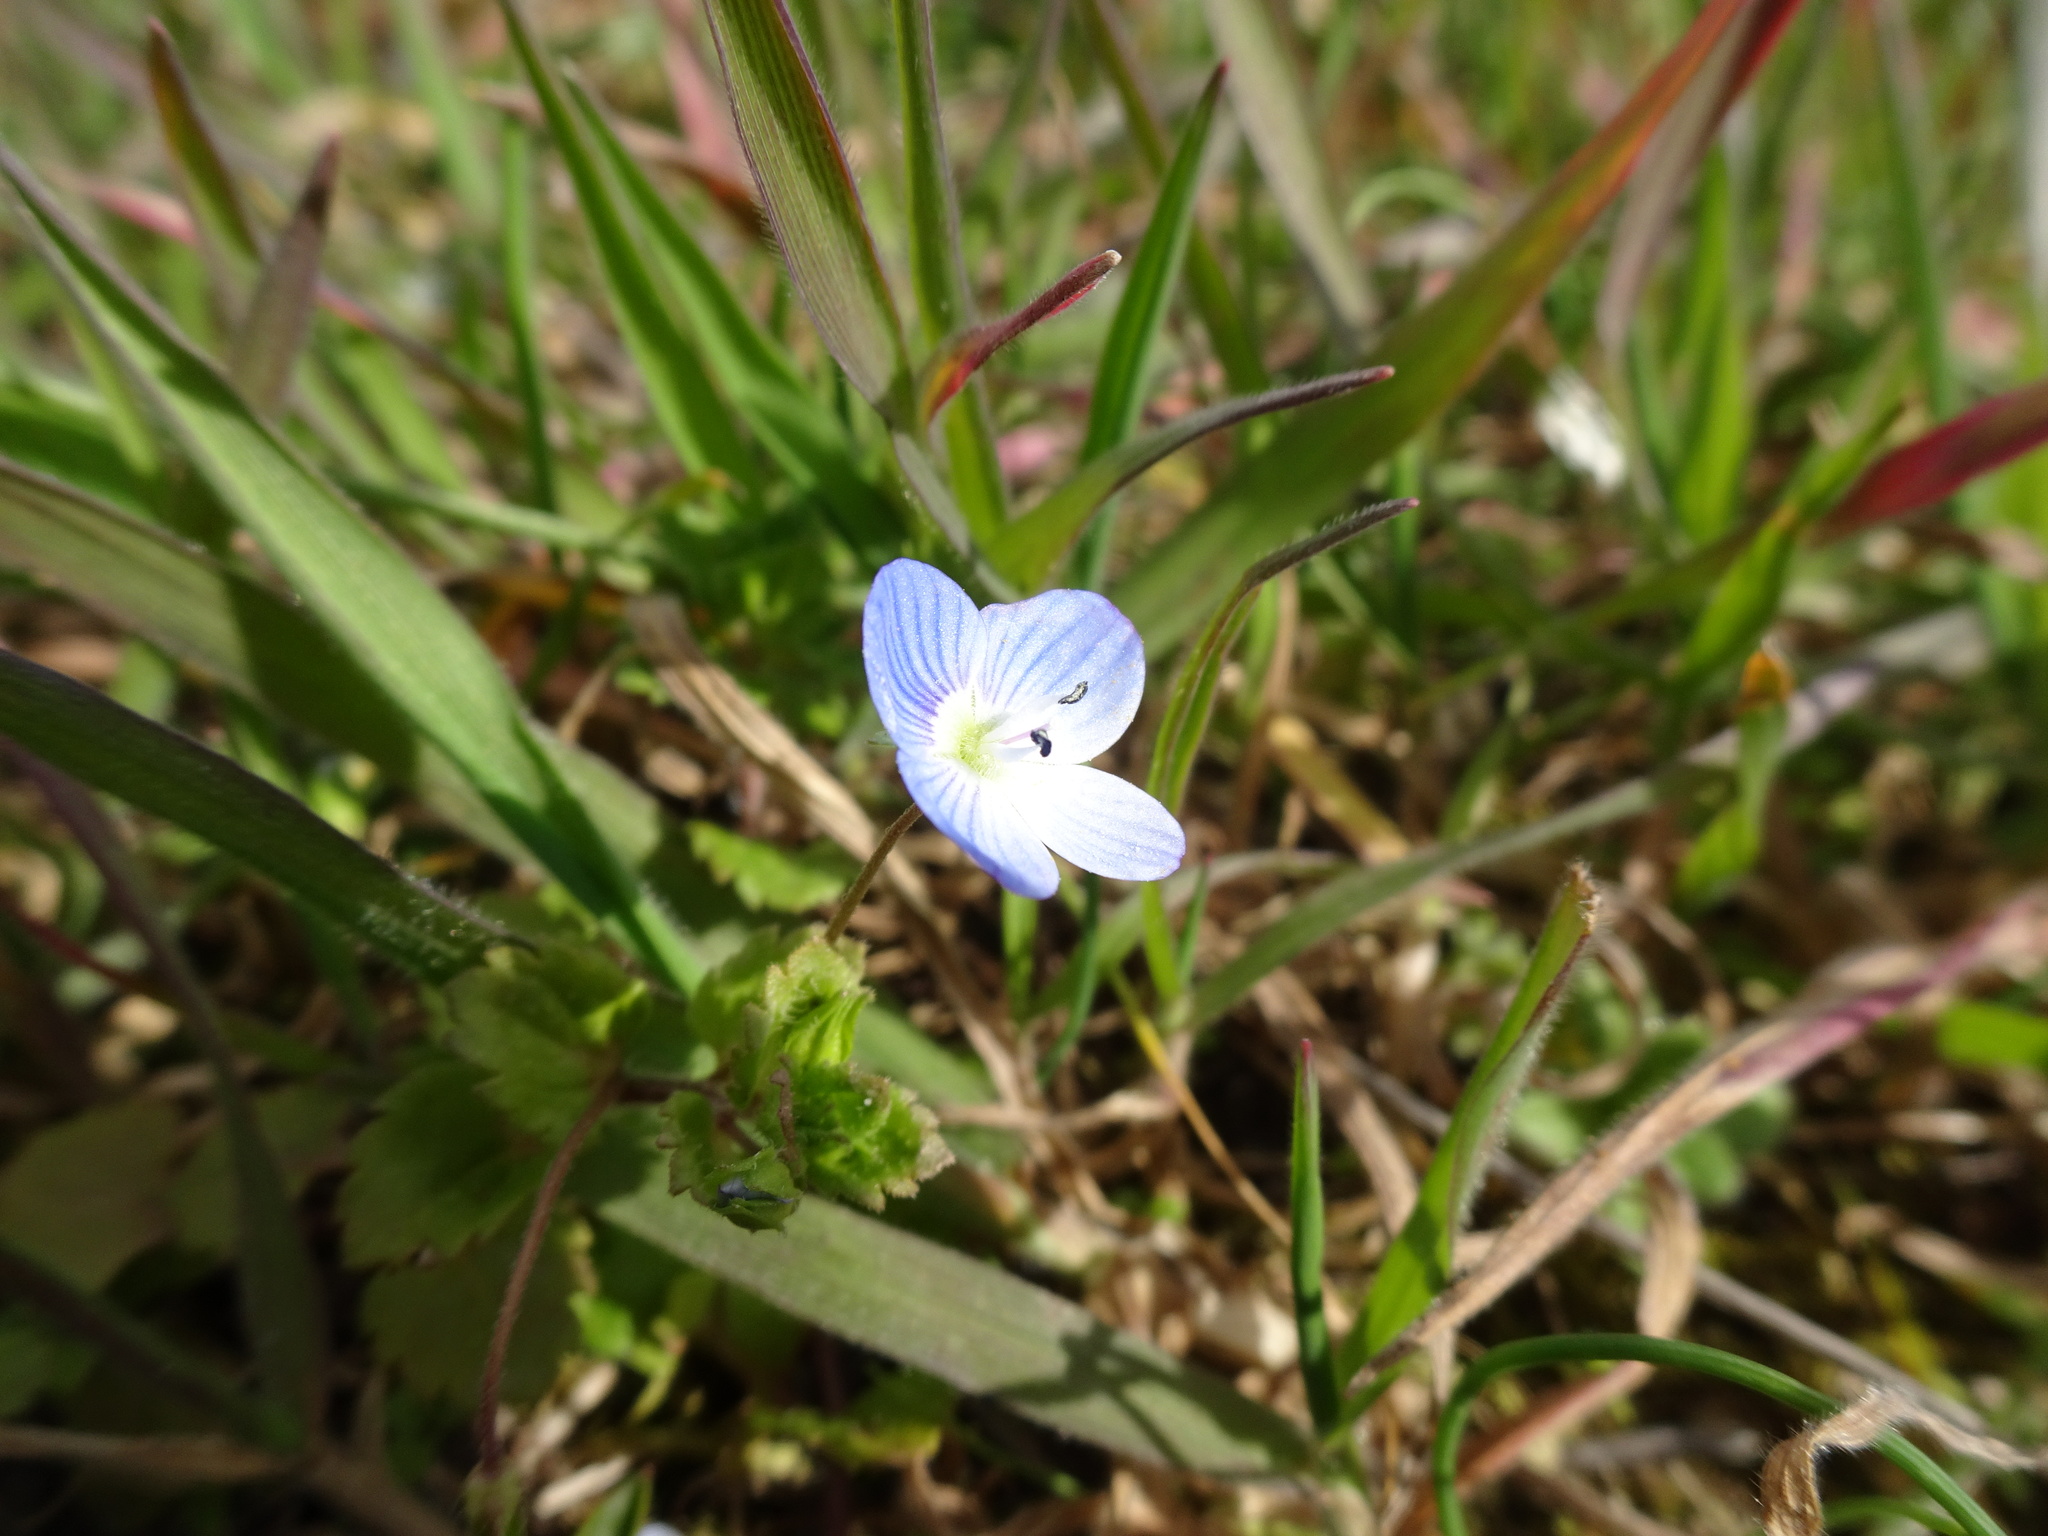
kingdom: Plantae
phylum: Tracheophyta
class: Magnoliopsida
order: Lamiales
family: Plantaginaceae
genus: Veronica
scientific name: Veronica persica
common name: Common field-speedwell
